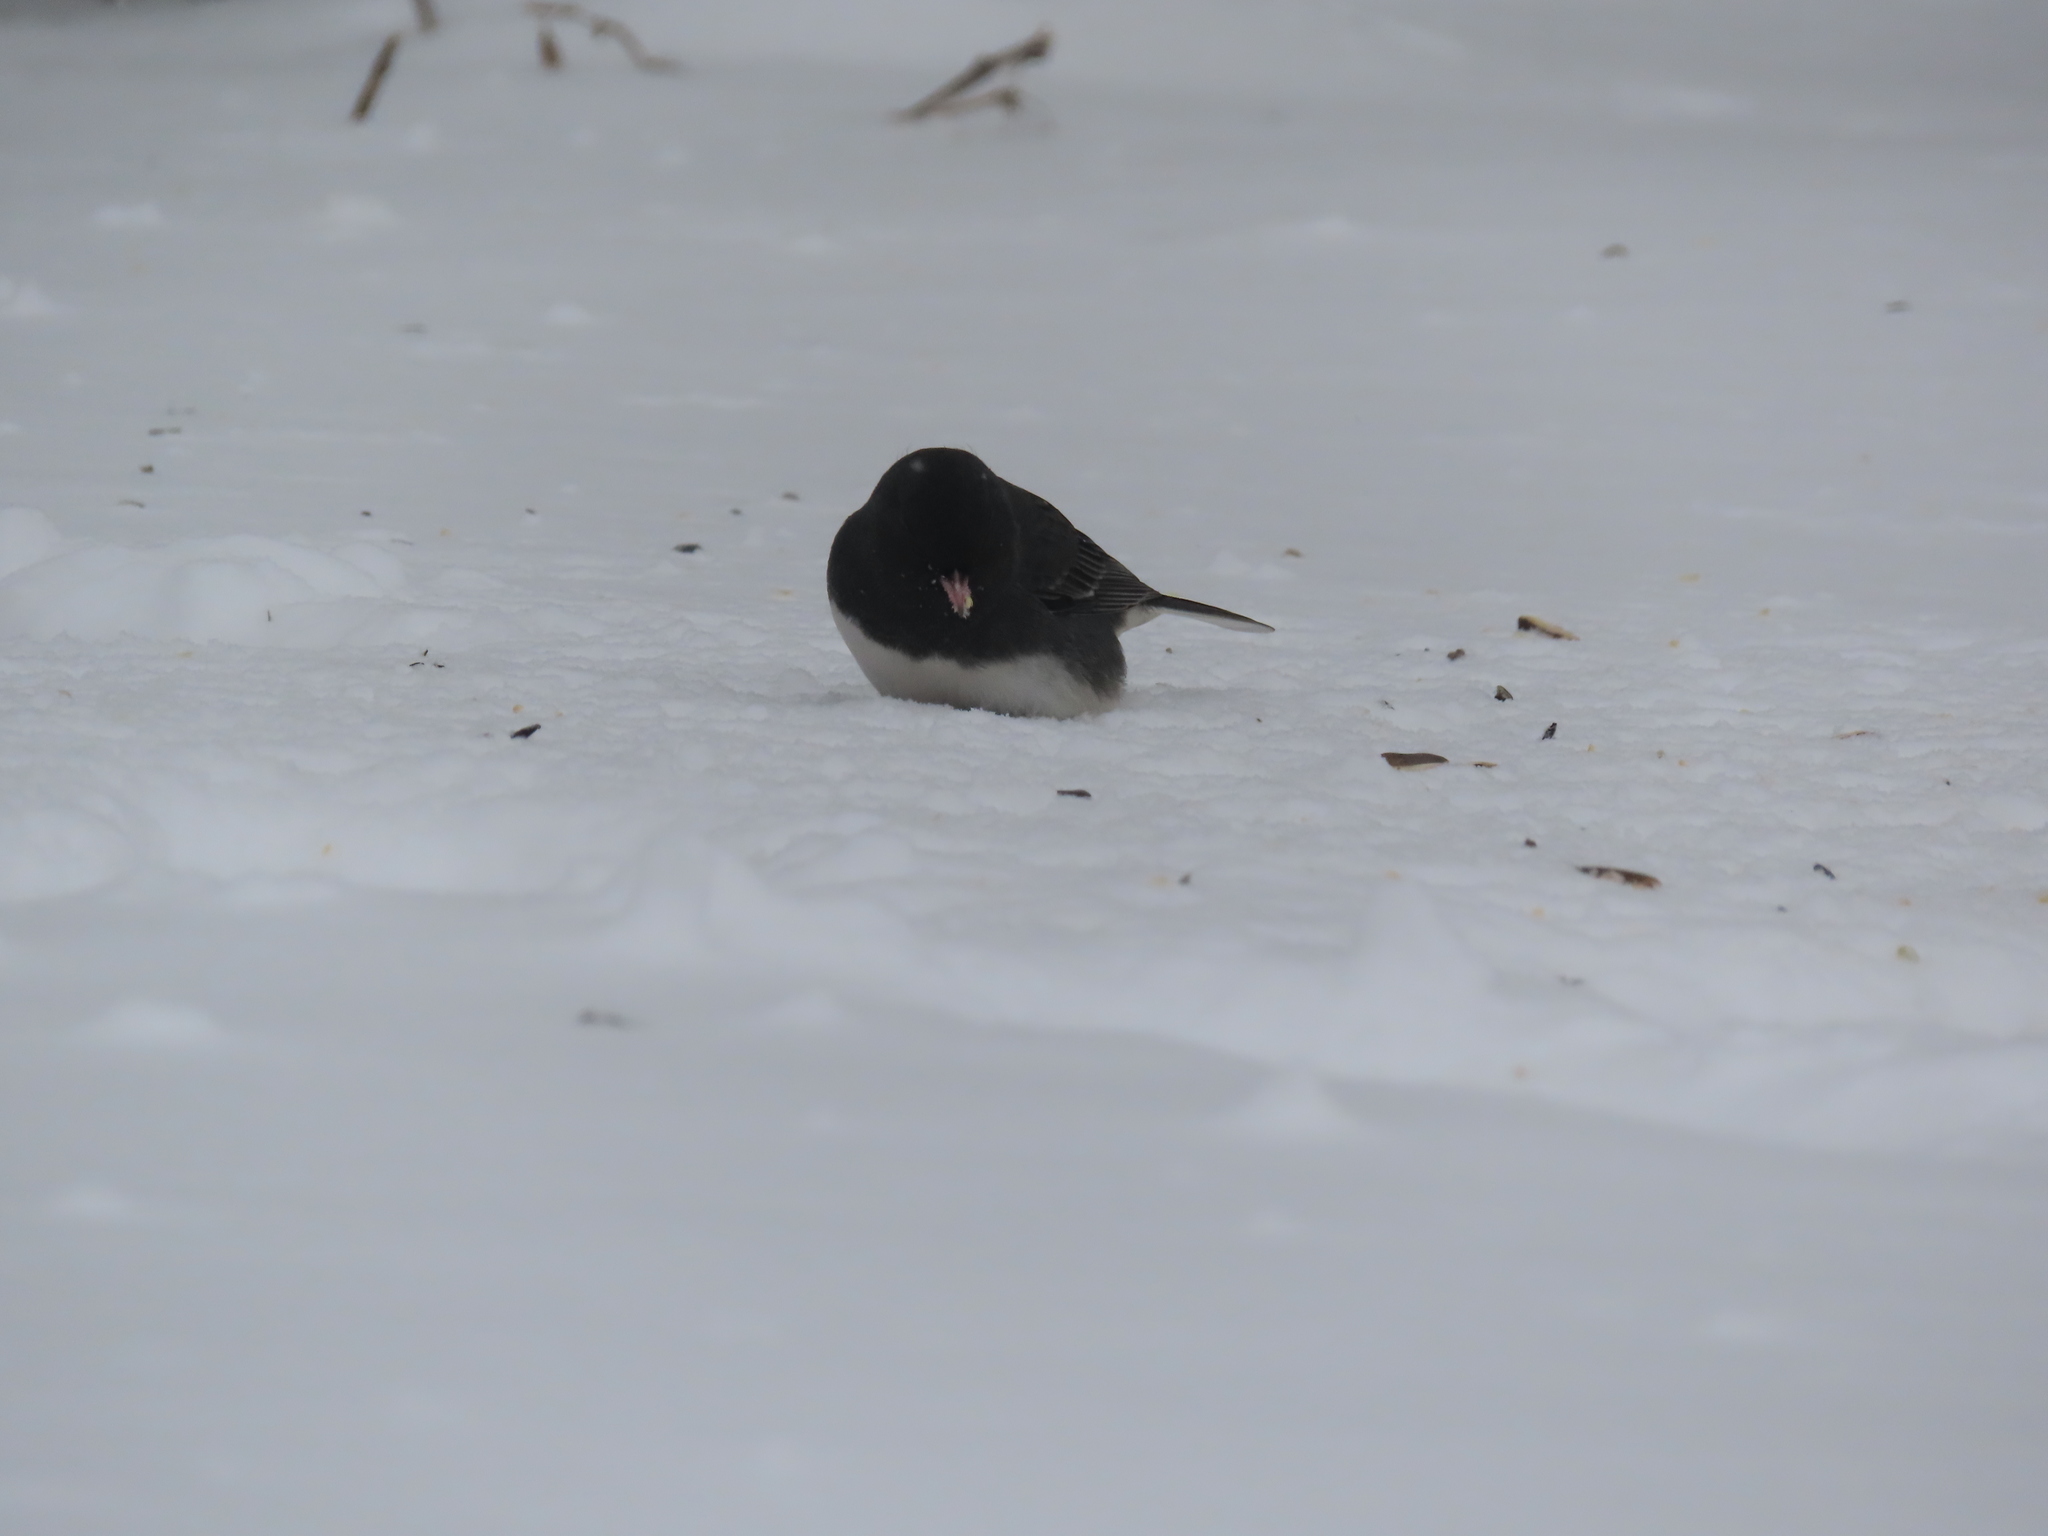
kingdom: Animalia
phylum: Chordata
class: Aves
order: Passeriformes
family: Passerellidae
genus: Junco
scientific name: Junco hyemalis
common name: Dark-eyed junco
